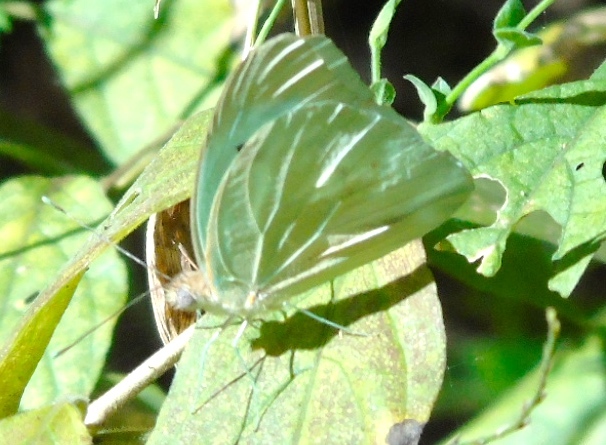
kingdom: Animalia
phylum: Arthropoda
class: Insecta
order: Lepidoptera
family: Pieridae
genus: Ganyra
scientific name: Ganyra josephina
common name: Giant white
